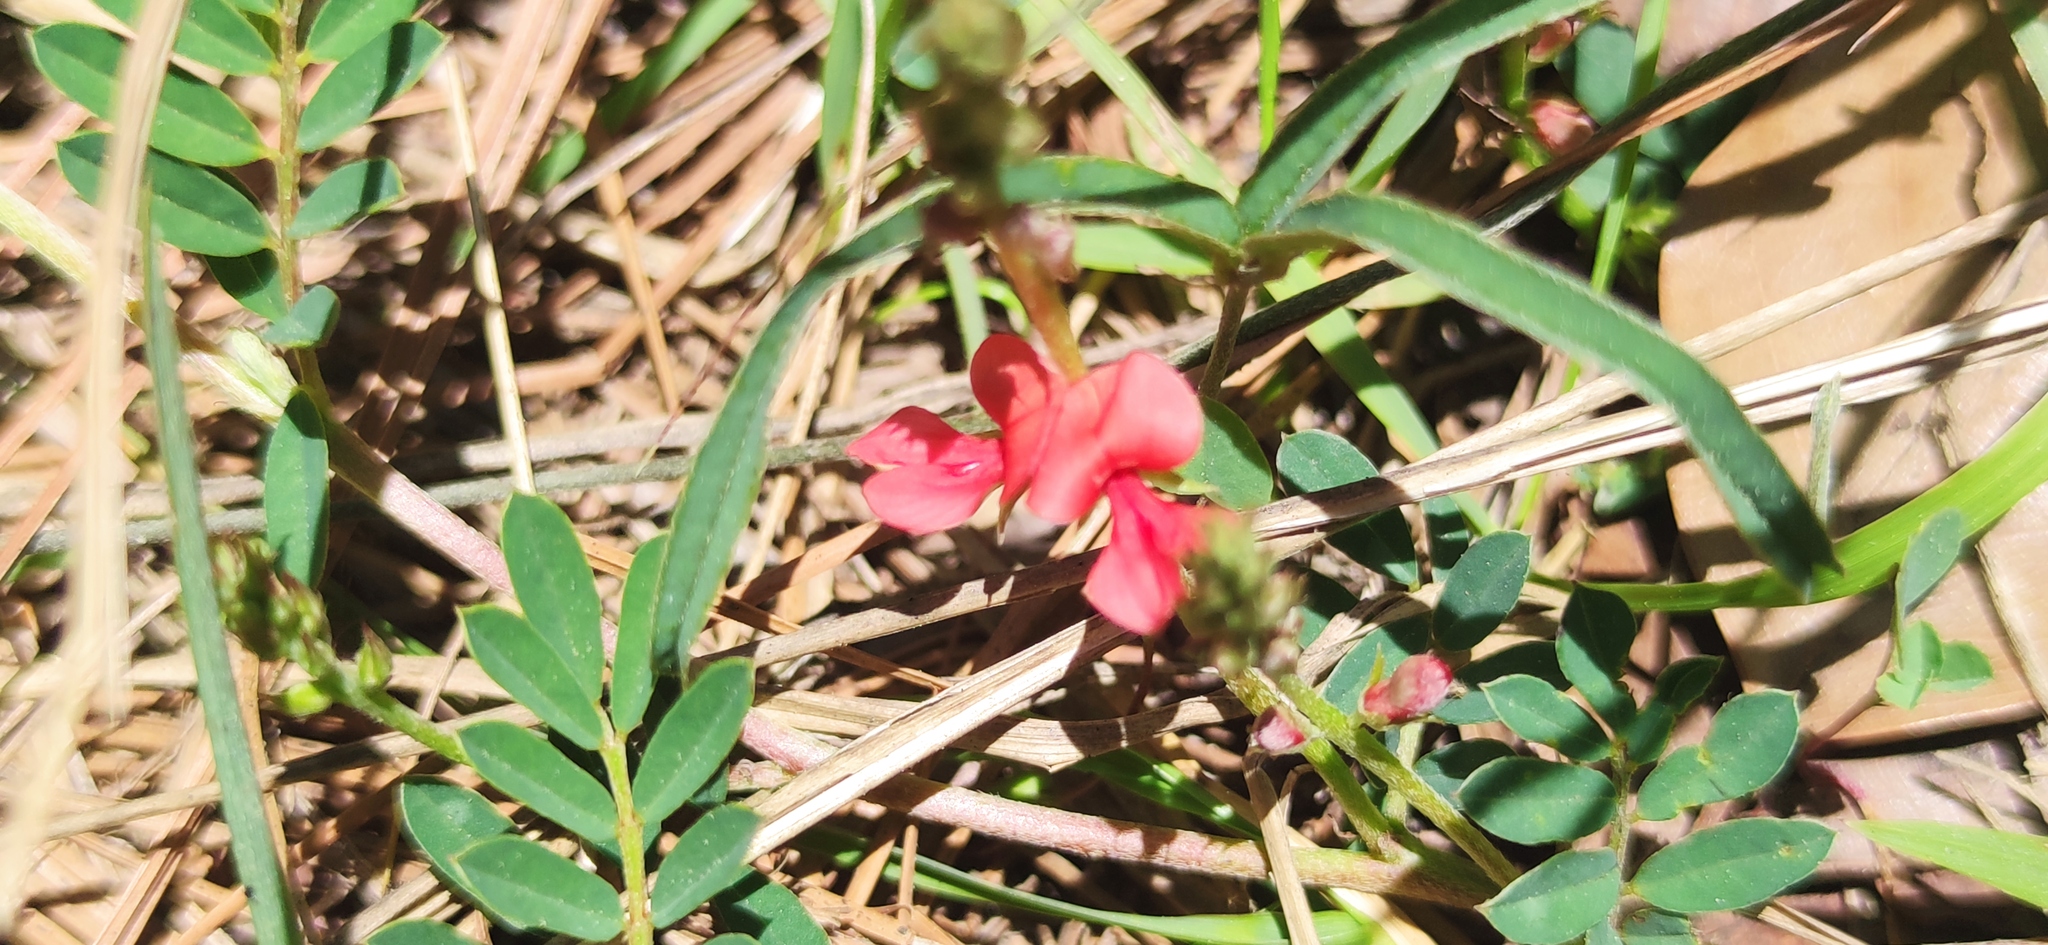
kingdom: Plantae
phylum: Tracheophyta
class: Magnoliopsida
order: Fabales
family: Fabaceae
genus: Indigofera
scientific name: Indigofera miniata
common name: Coast indigo
